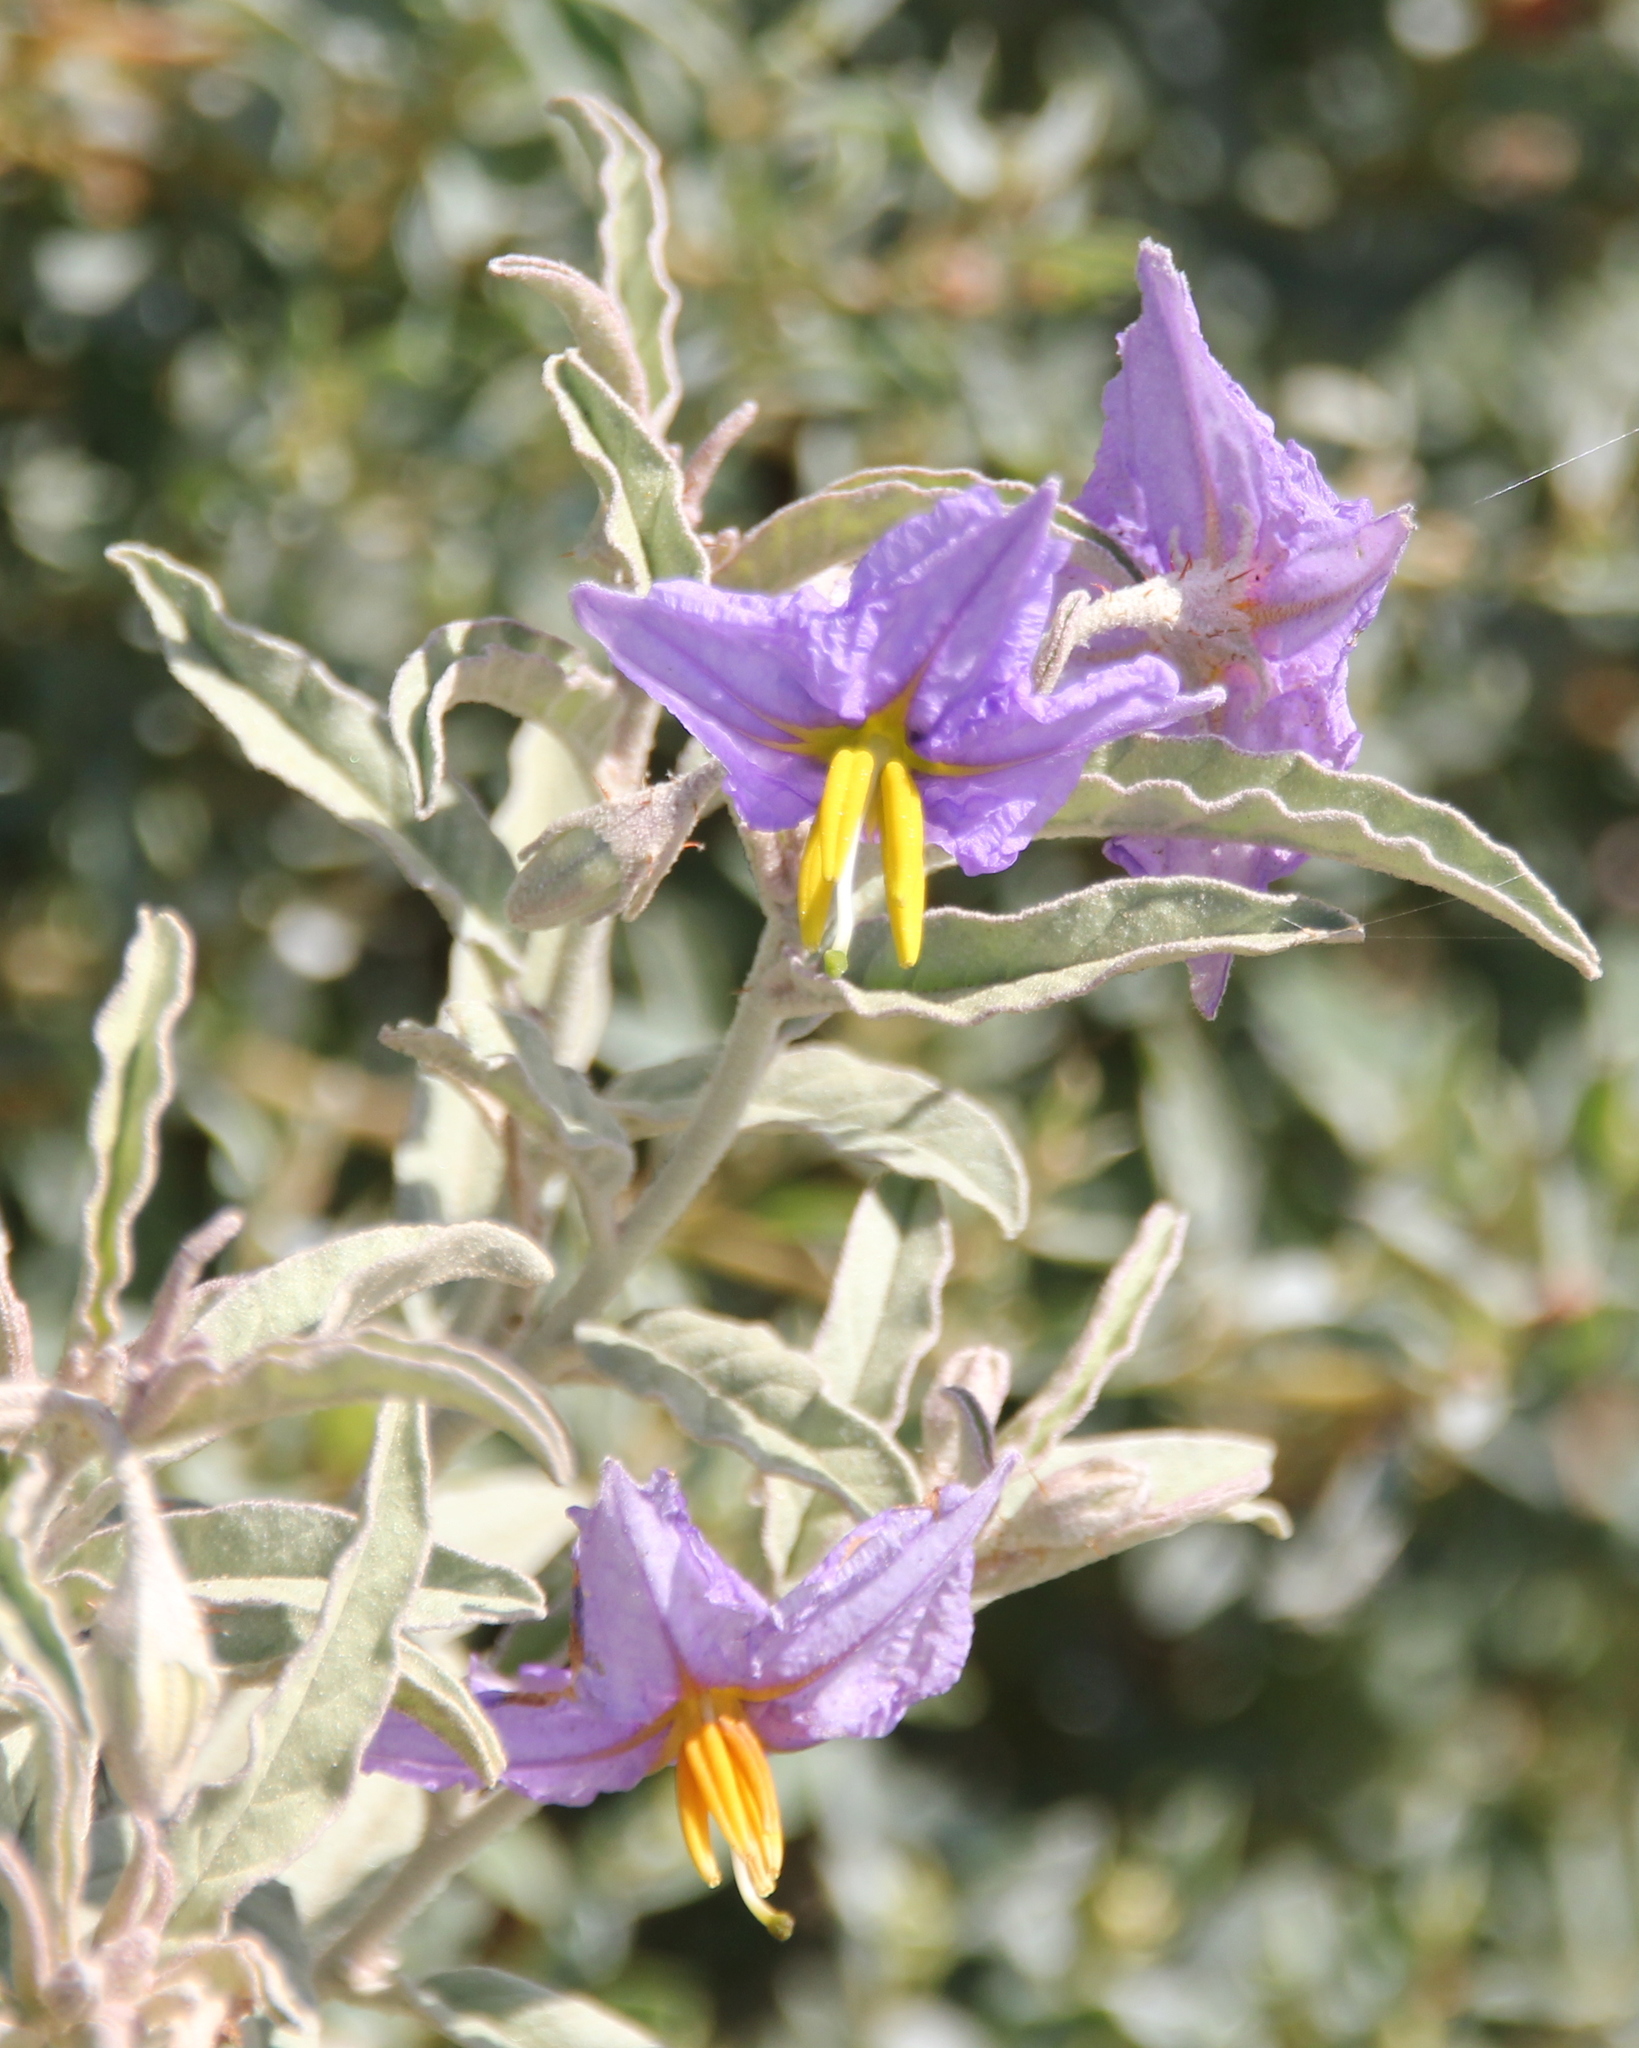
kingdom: Plantae
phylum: Tracheophyta
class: Magnoliopsida
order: Solanales
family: Solanaceae
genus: Solanum
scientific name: Solanum elaeagnifolium
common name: Silverleaf nightshade
